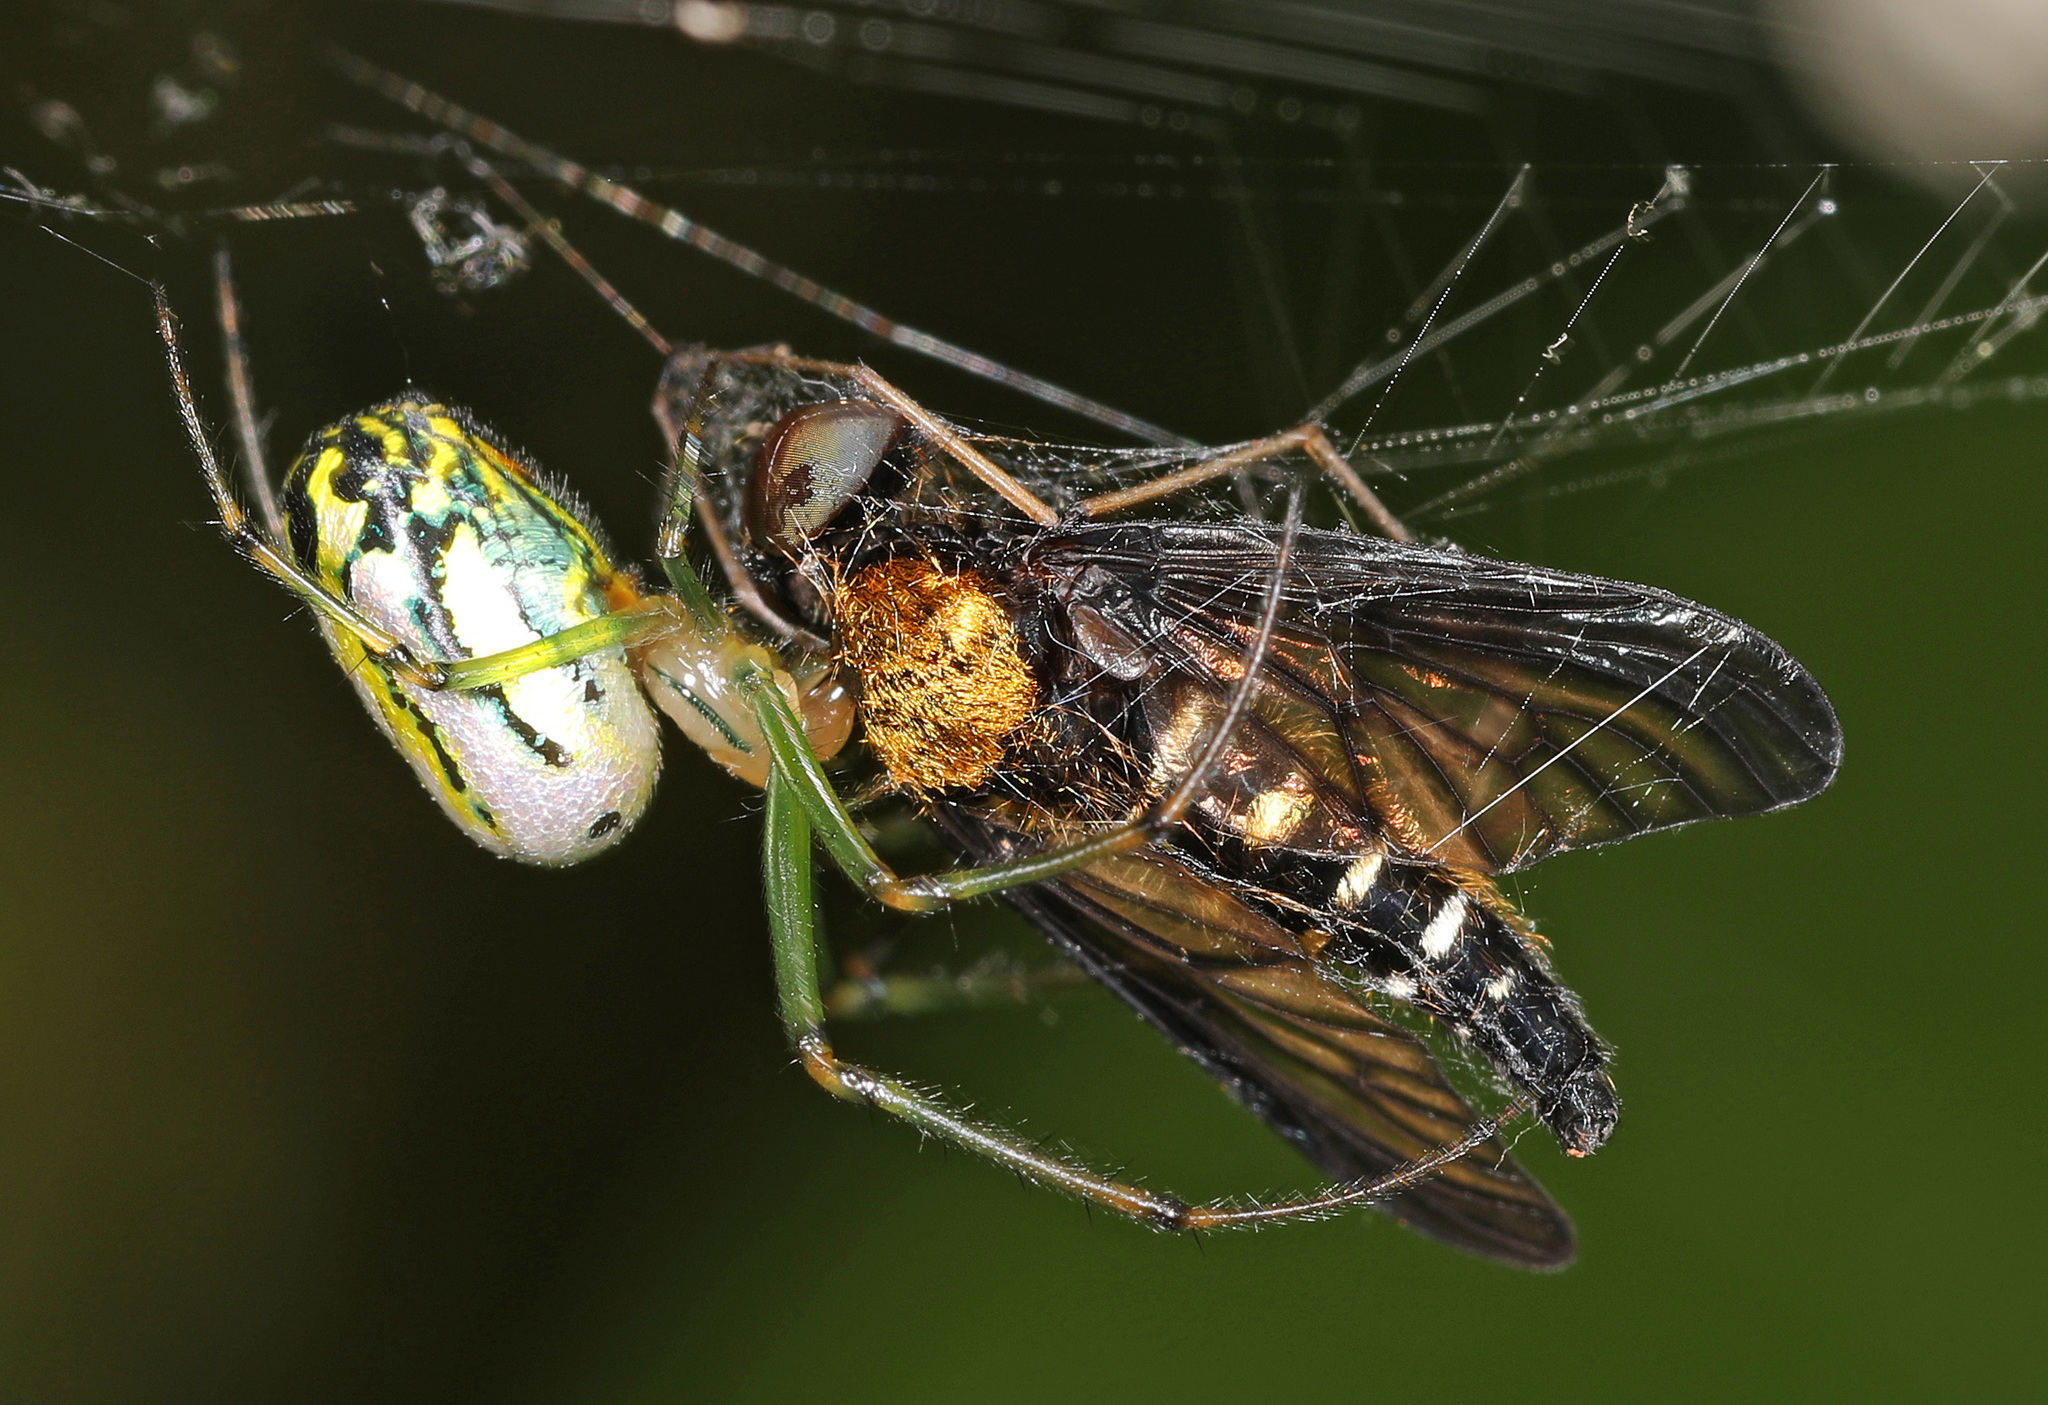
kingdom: Animalia
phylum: Arthropoda
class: Arachnida
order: Araneae
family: Tetragnathidae
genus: Leucauge
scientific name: Leucauge venusta
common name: Longjawed orb weavers
